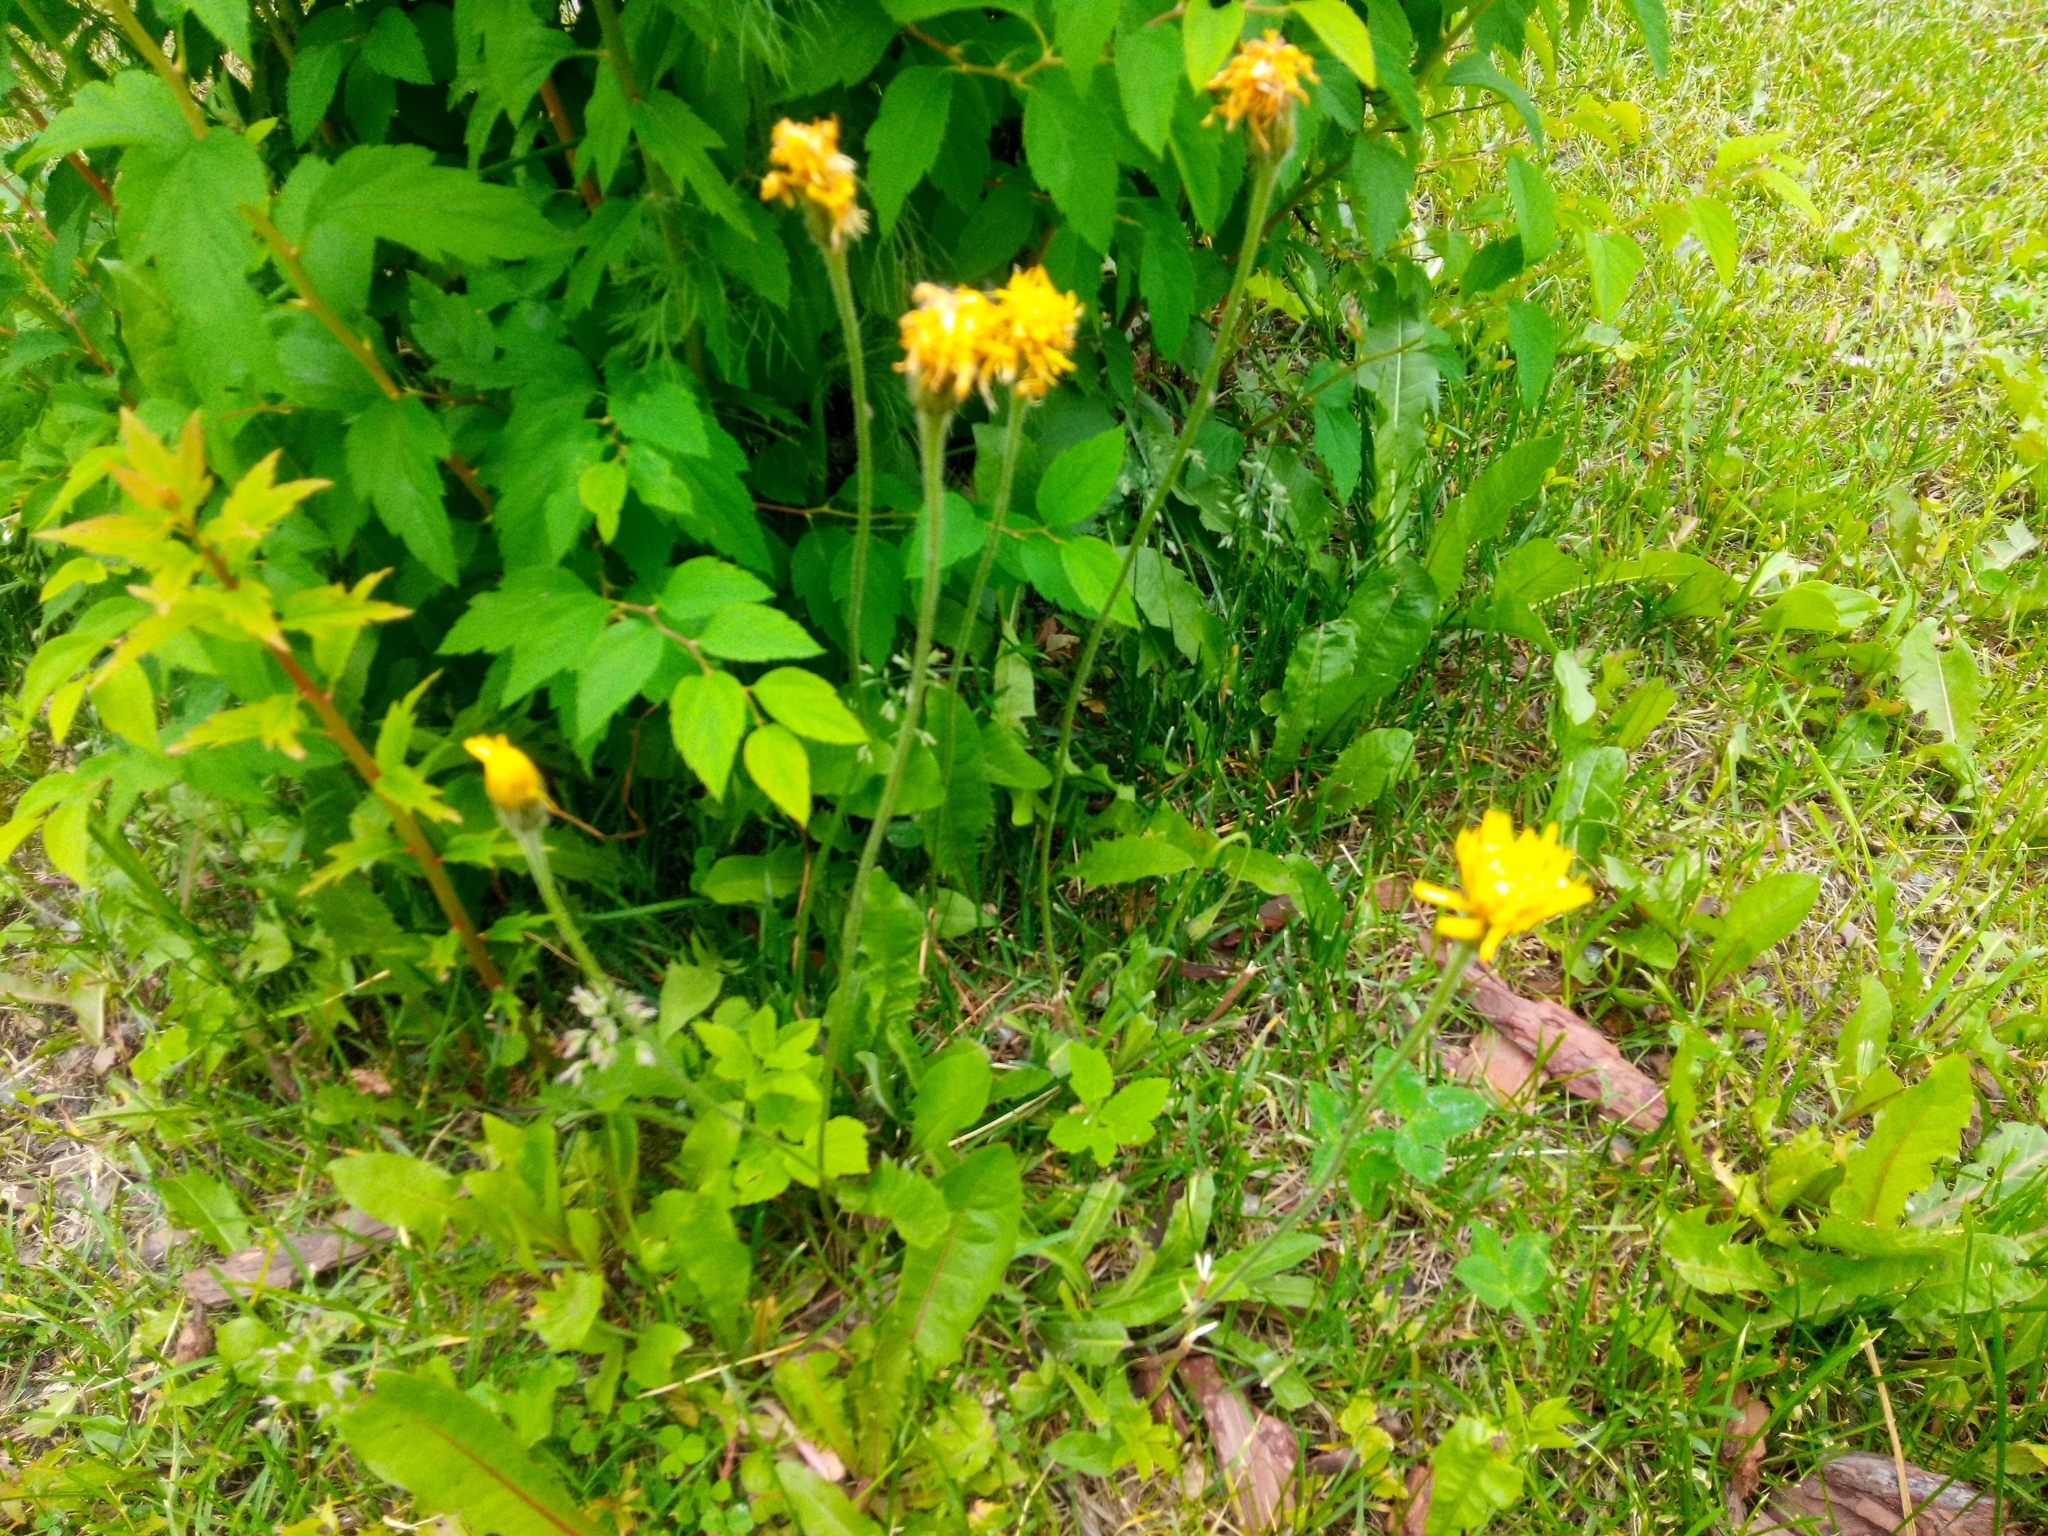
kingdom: Plantae
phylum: Tracheophyta
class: Magnoliopsida
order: Asterales
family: Asteraceae
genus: Leontodon
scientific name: Leontodon hispidus
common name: Rough hawkbit
